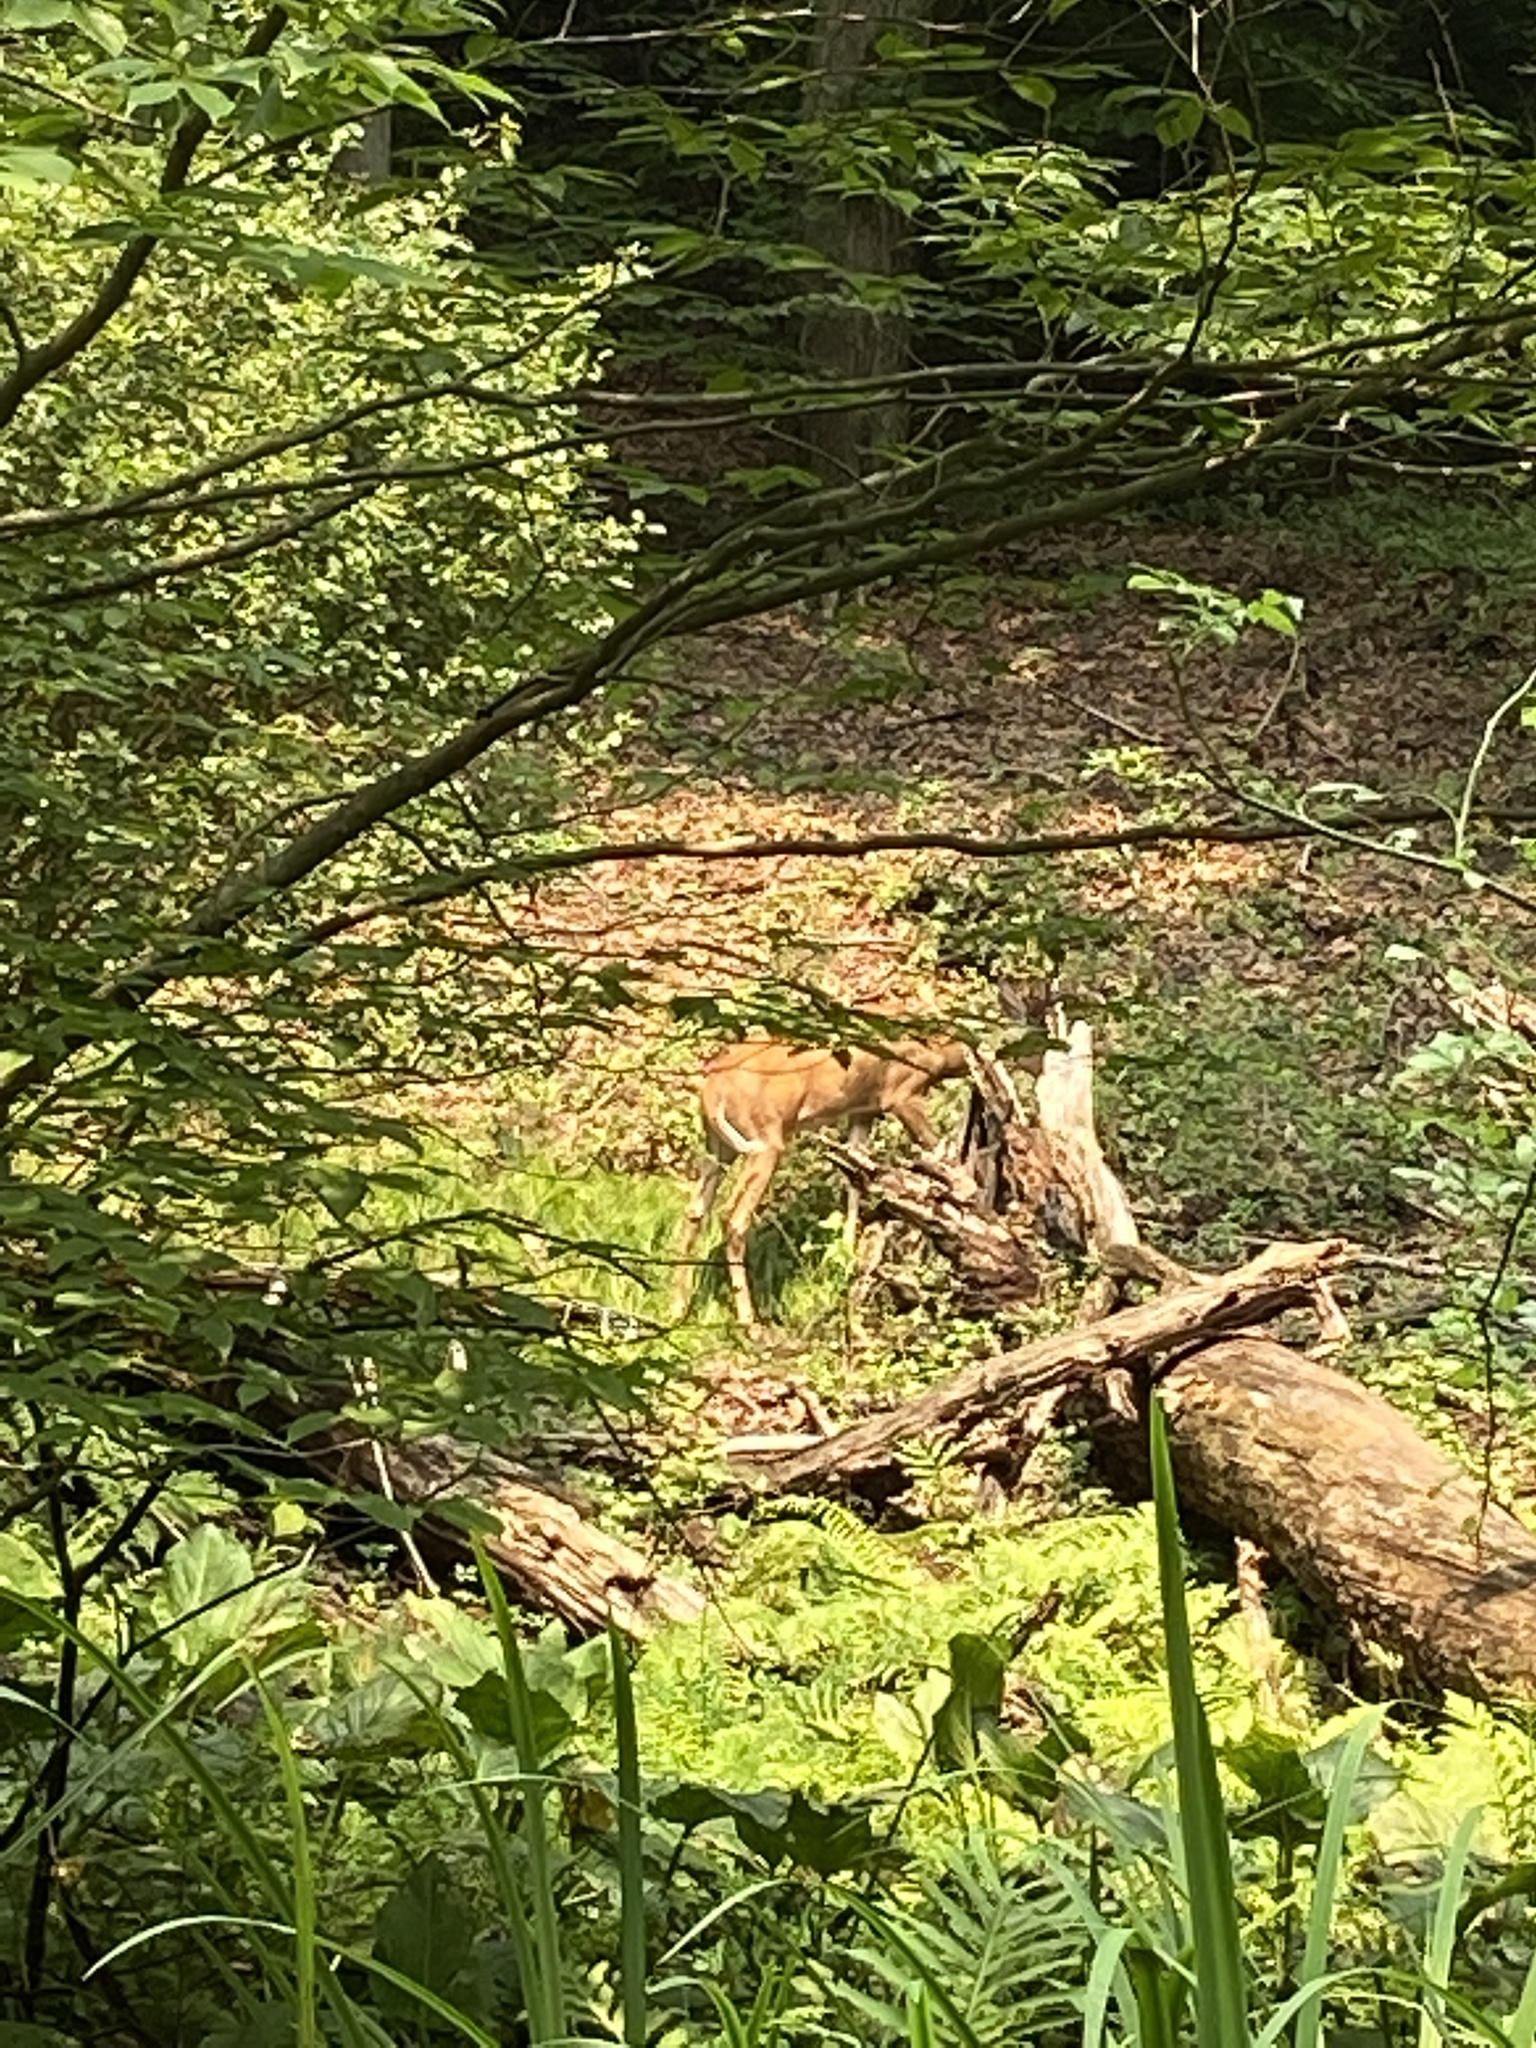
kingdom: Animalia
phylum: Chordata
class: Mammalia
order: Artiodactyla
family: Cervidae
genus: Odocoileus
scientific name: Odocoileus virginianus
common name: White-tailed deer
